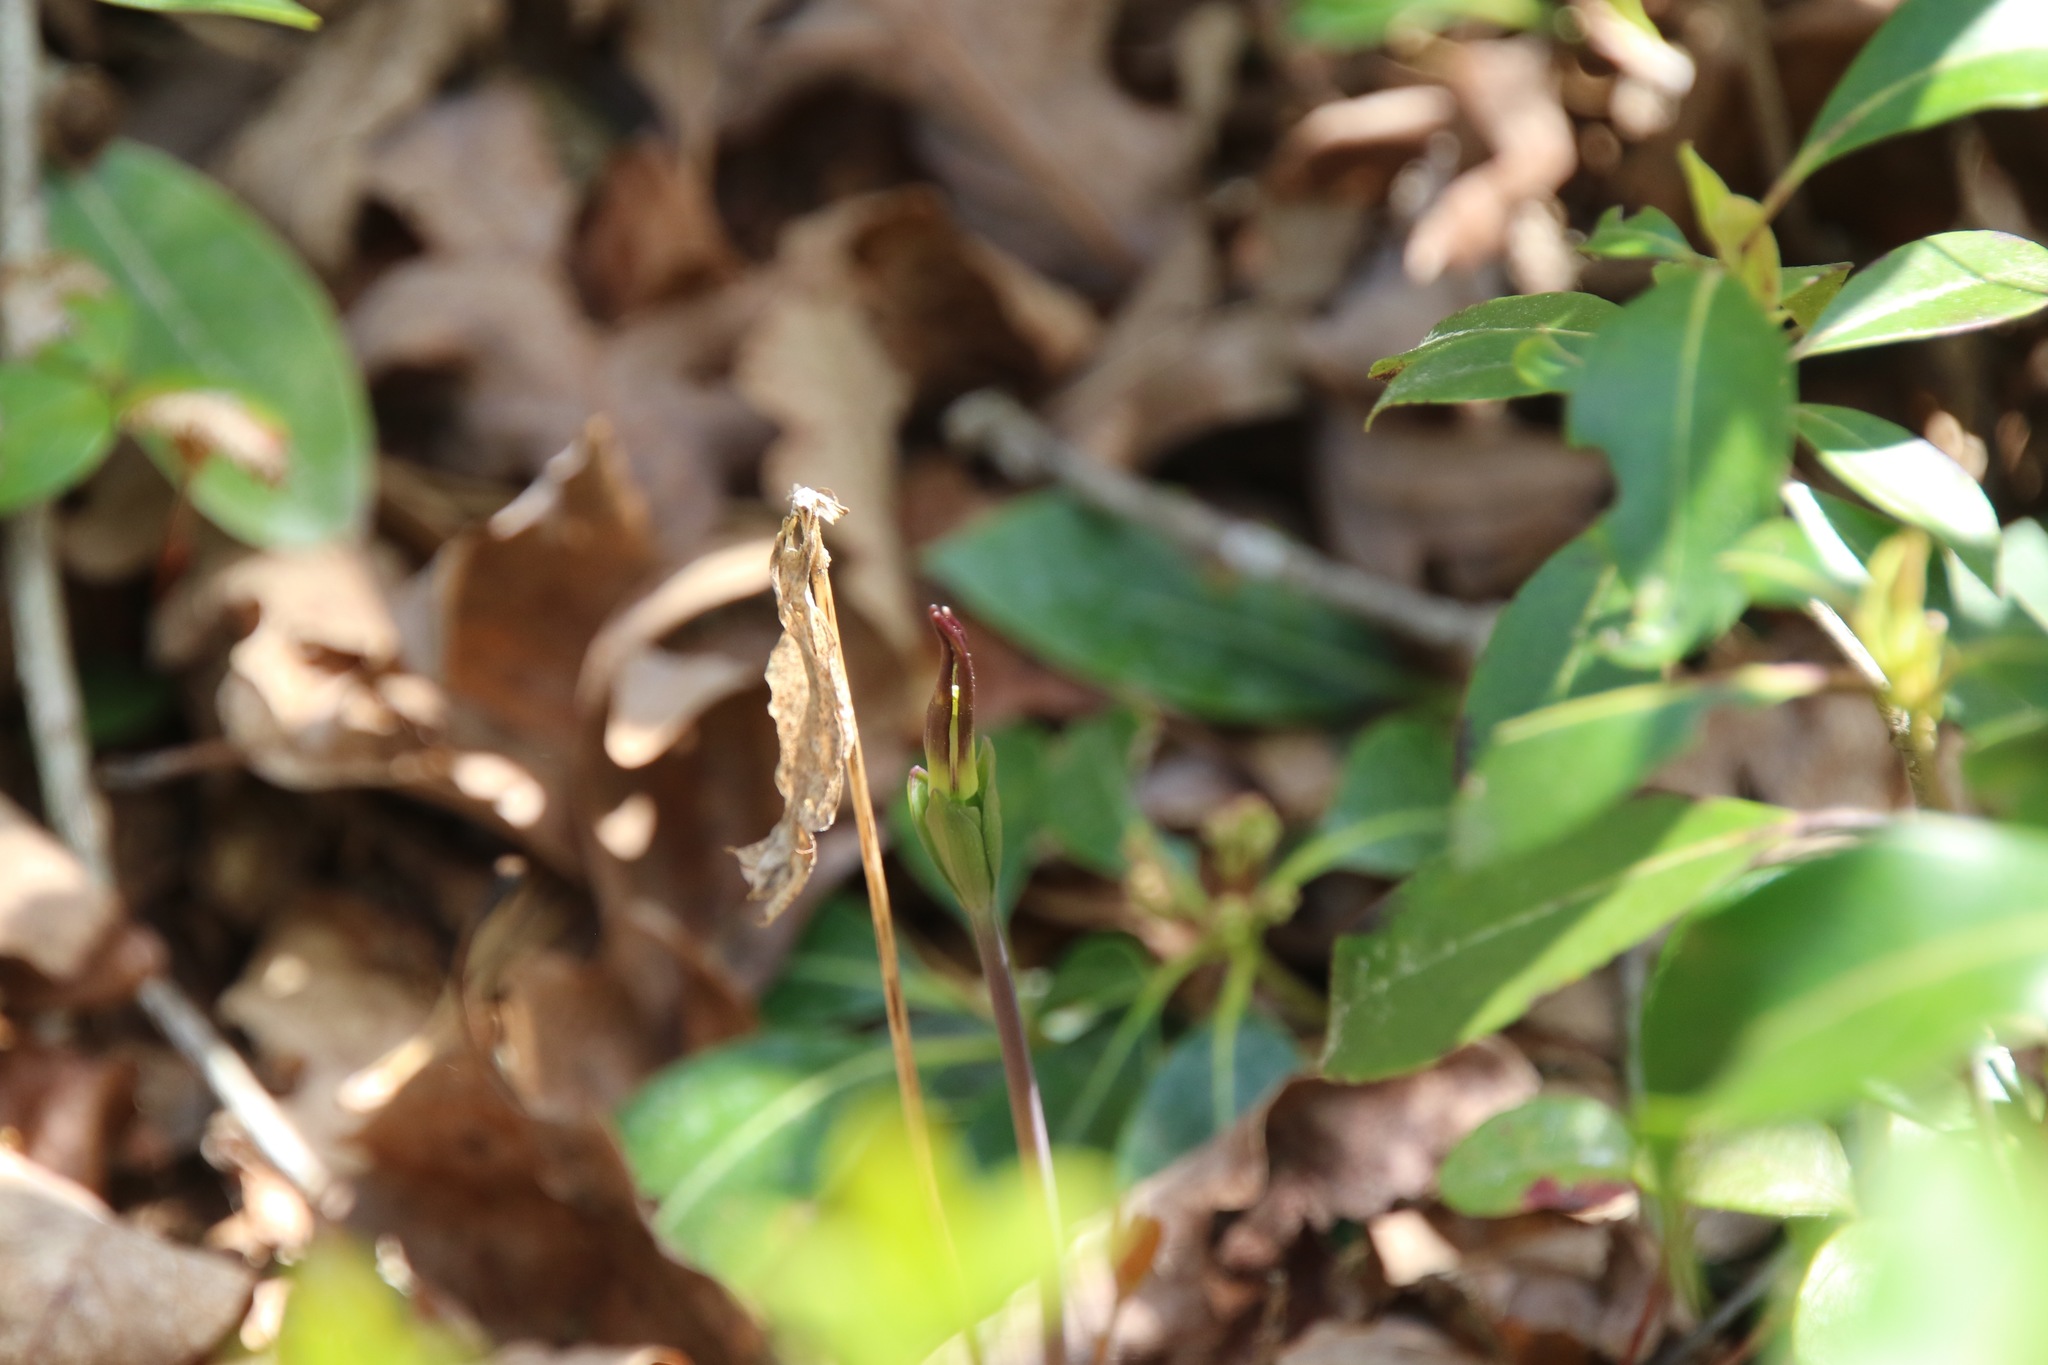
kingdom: Plantae
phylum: Tracheophyta
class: Liliopsida
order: Asparagales
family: Orchidaceae
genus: Isotria
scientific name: Isotria verticillata
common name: Large whorled pogonia
